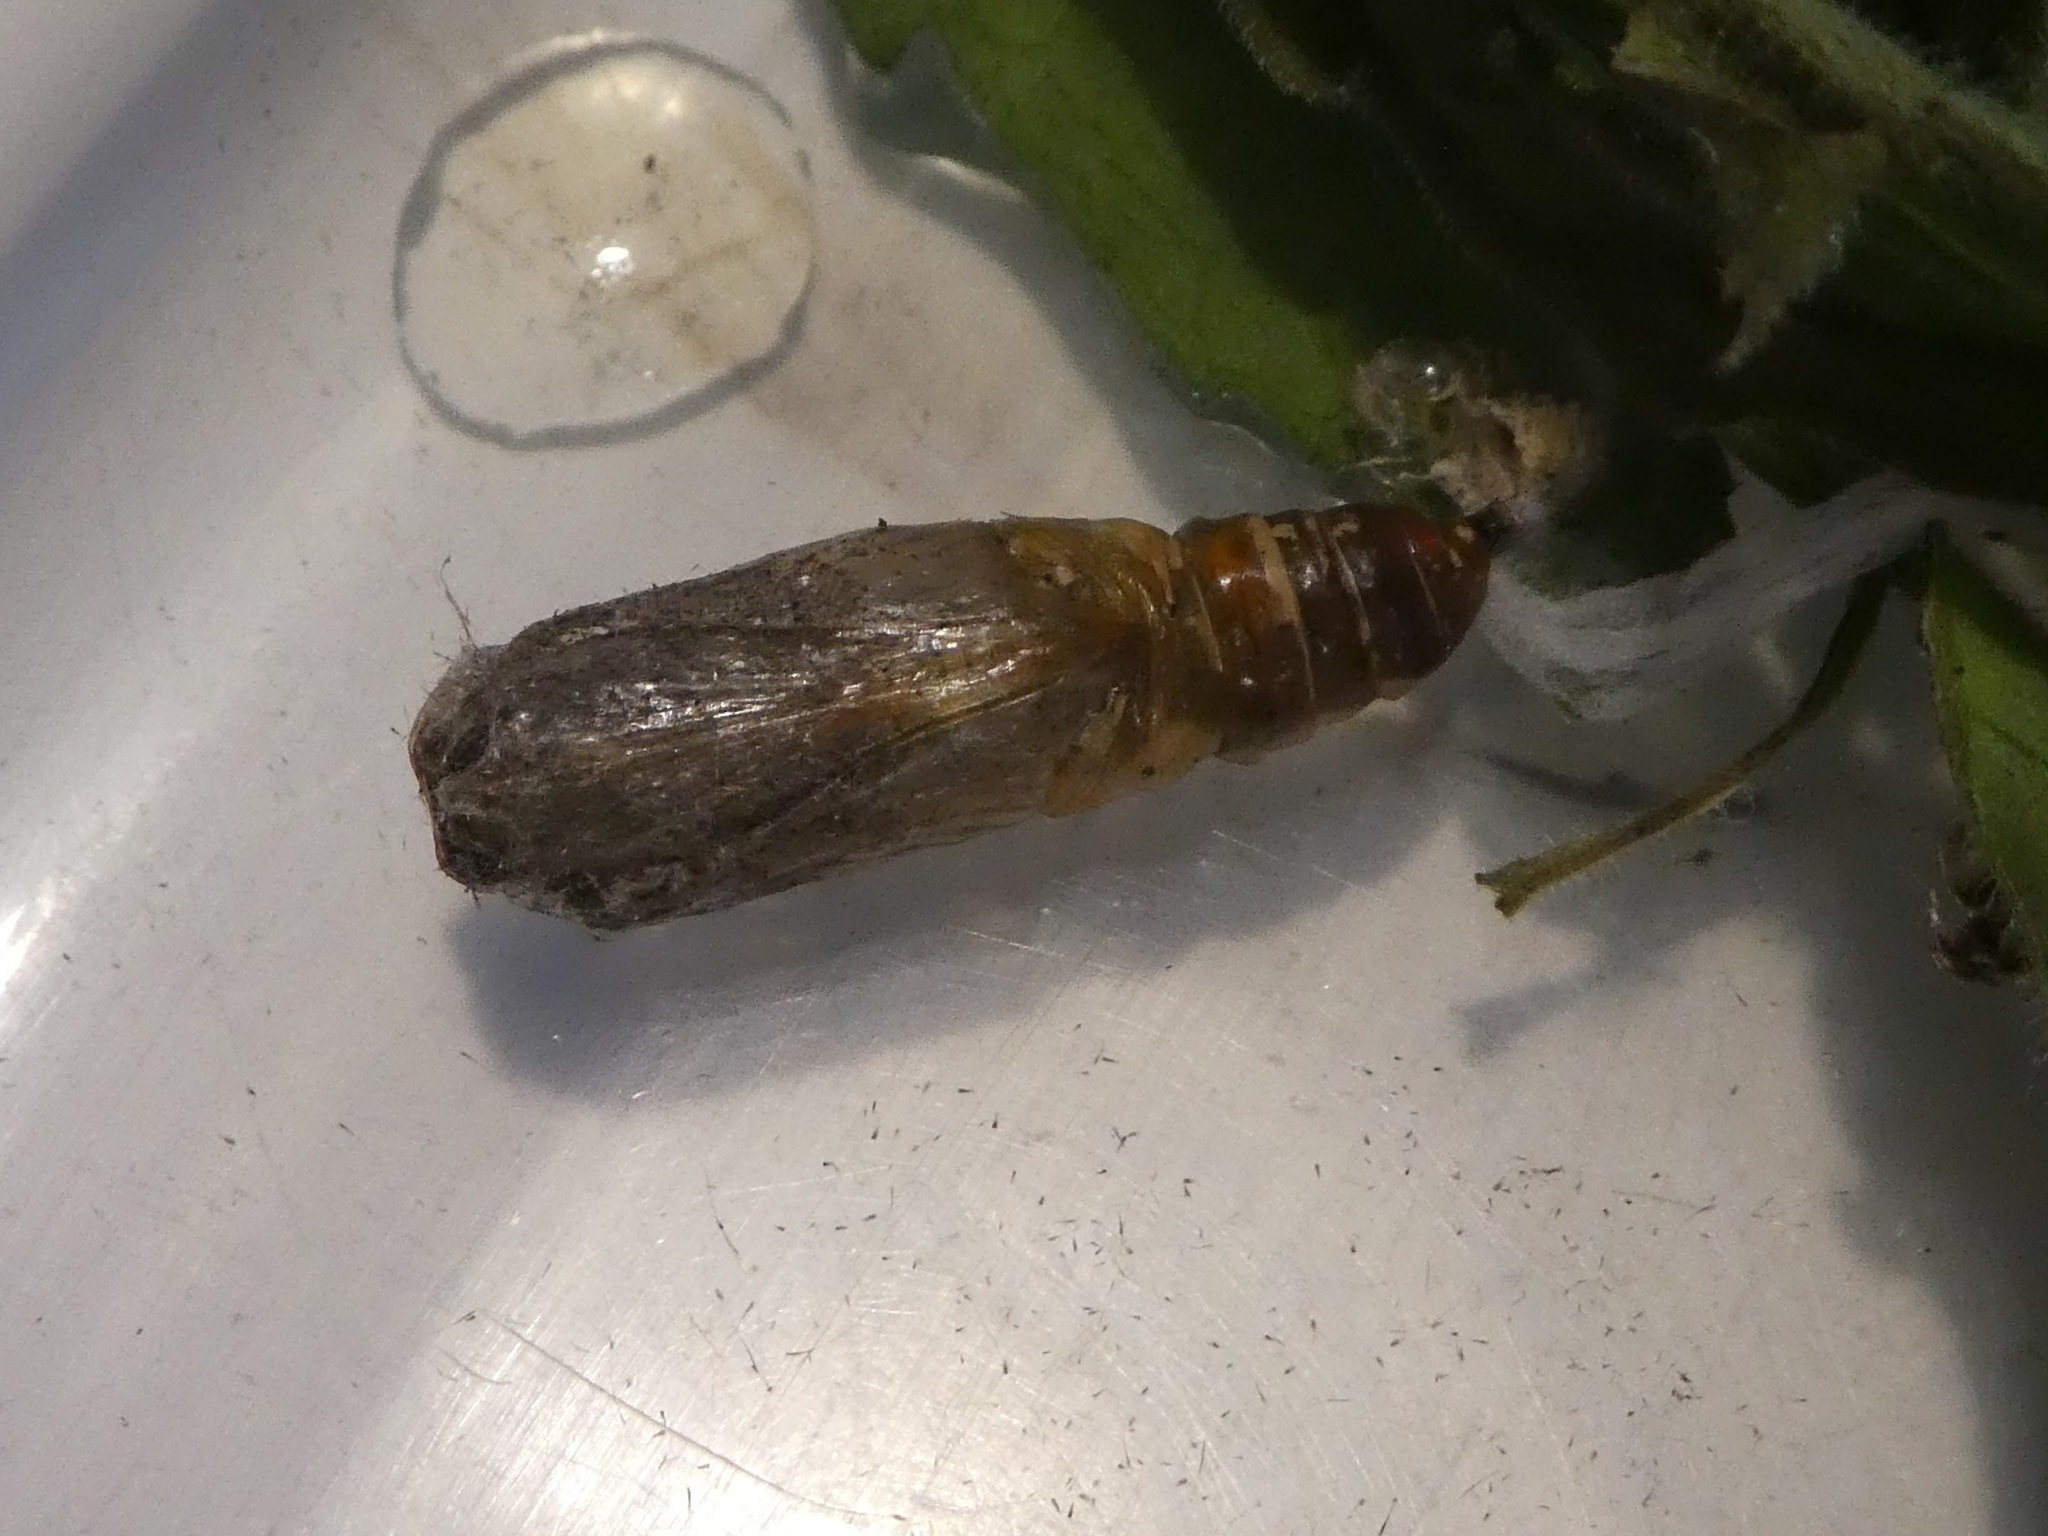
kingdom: Animalia
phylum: Arthropoda
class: Insecta
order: Lepidoptera
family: Noctuidae
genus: Ctenoplusia
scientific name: Ctenoplusia albostriata
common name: Moth
